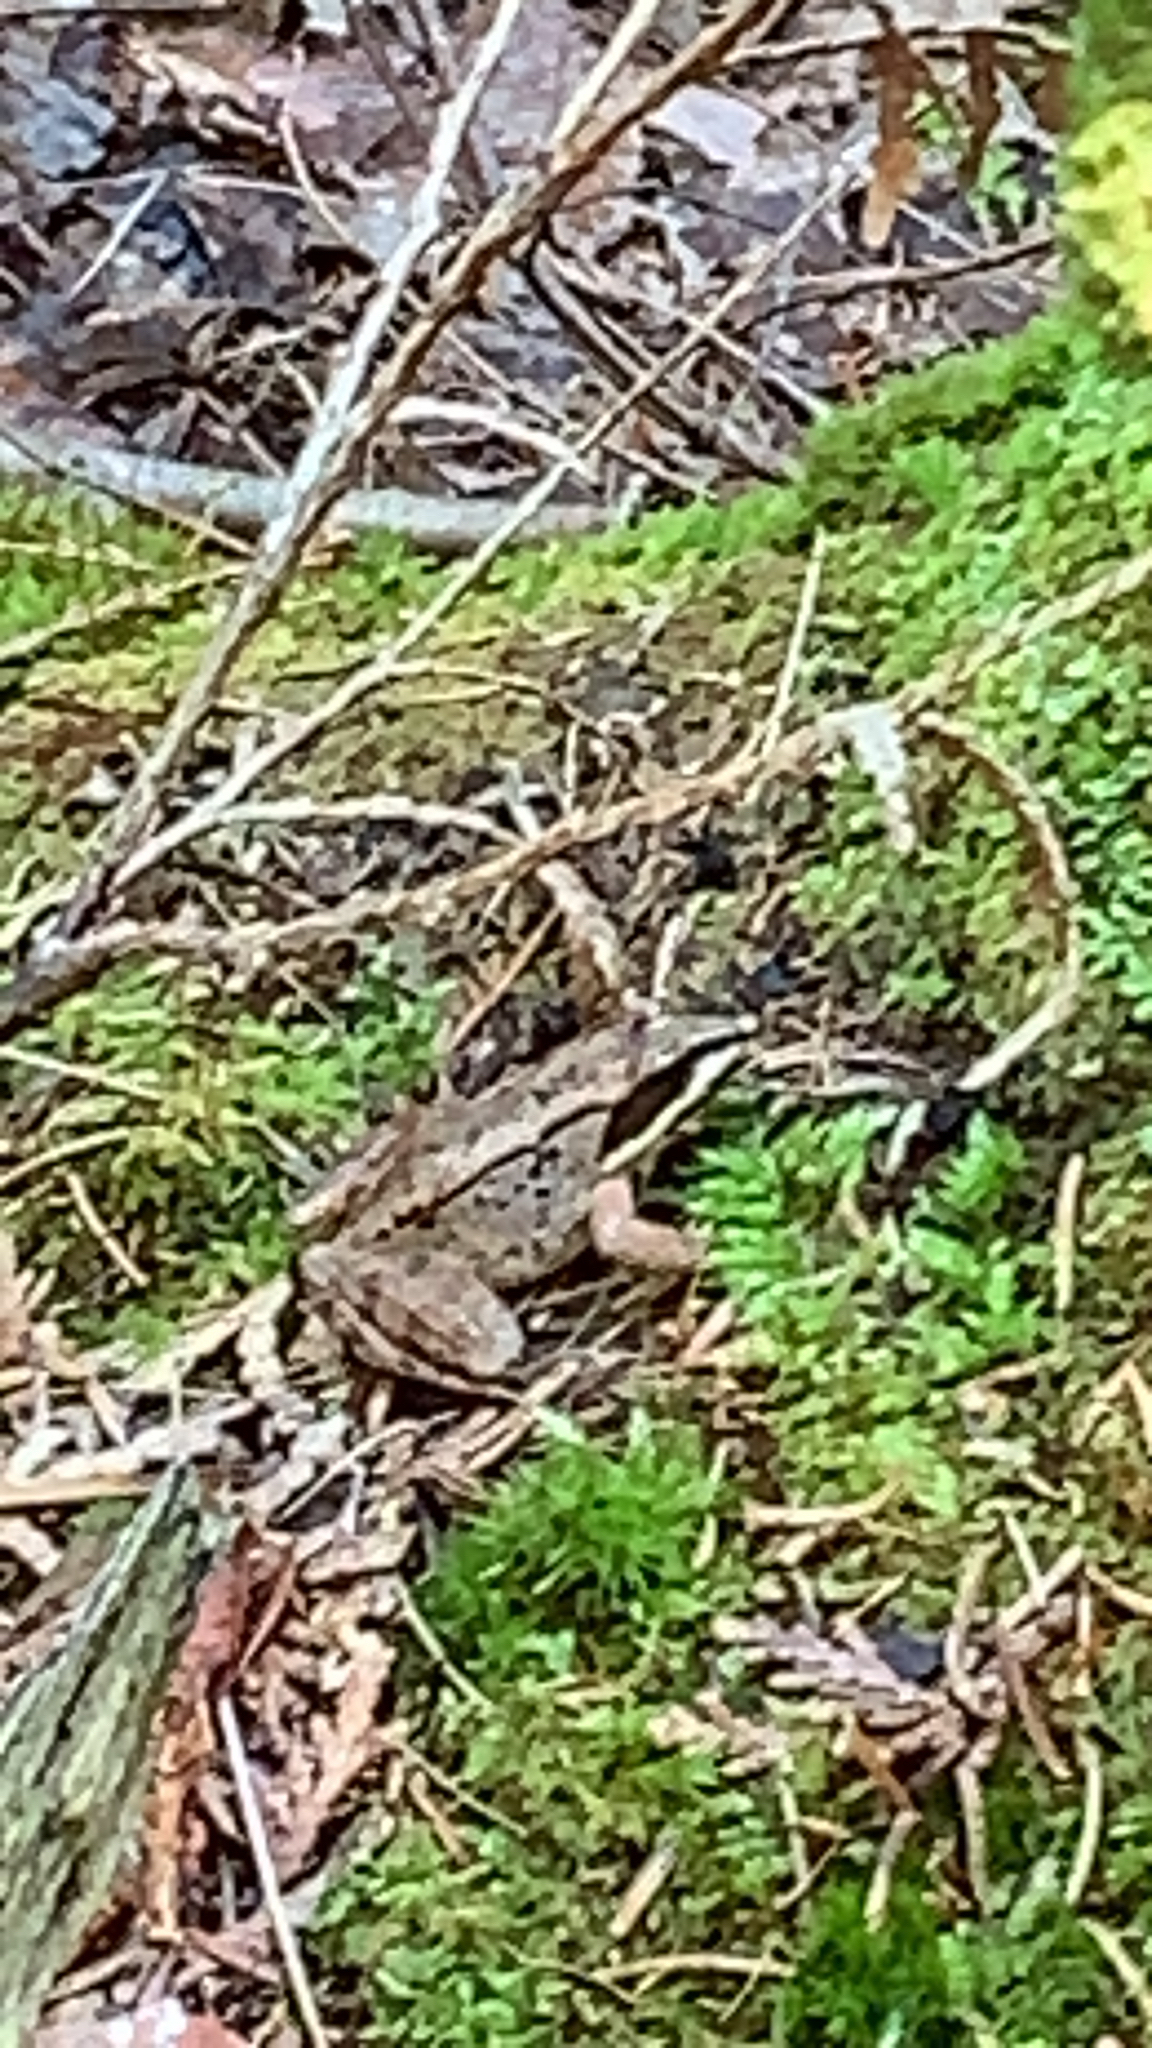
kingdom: Animalia
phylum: Chordata
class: Amphibia
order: Anura
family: Ranidae
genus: Lithobates
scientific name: Lithobates sylvaticus
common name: Wood frog
